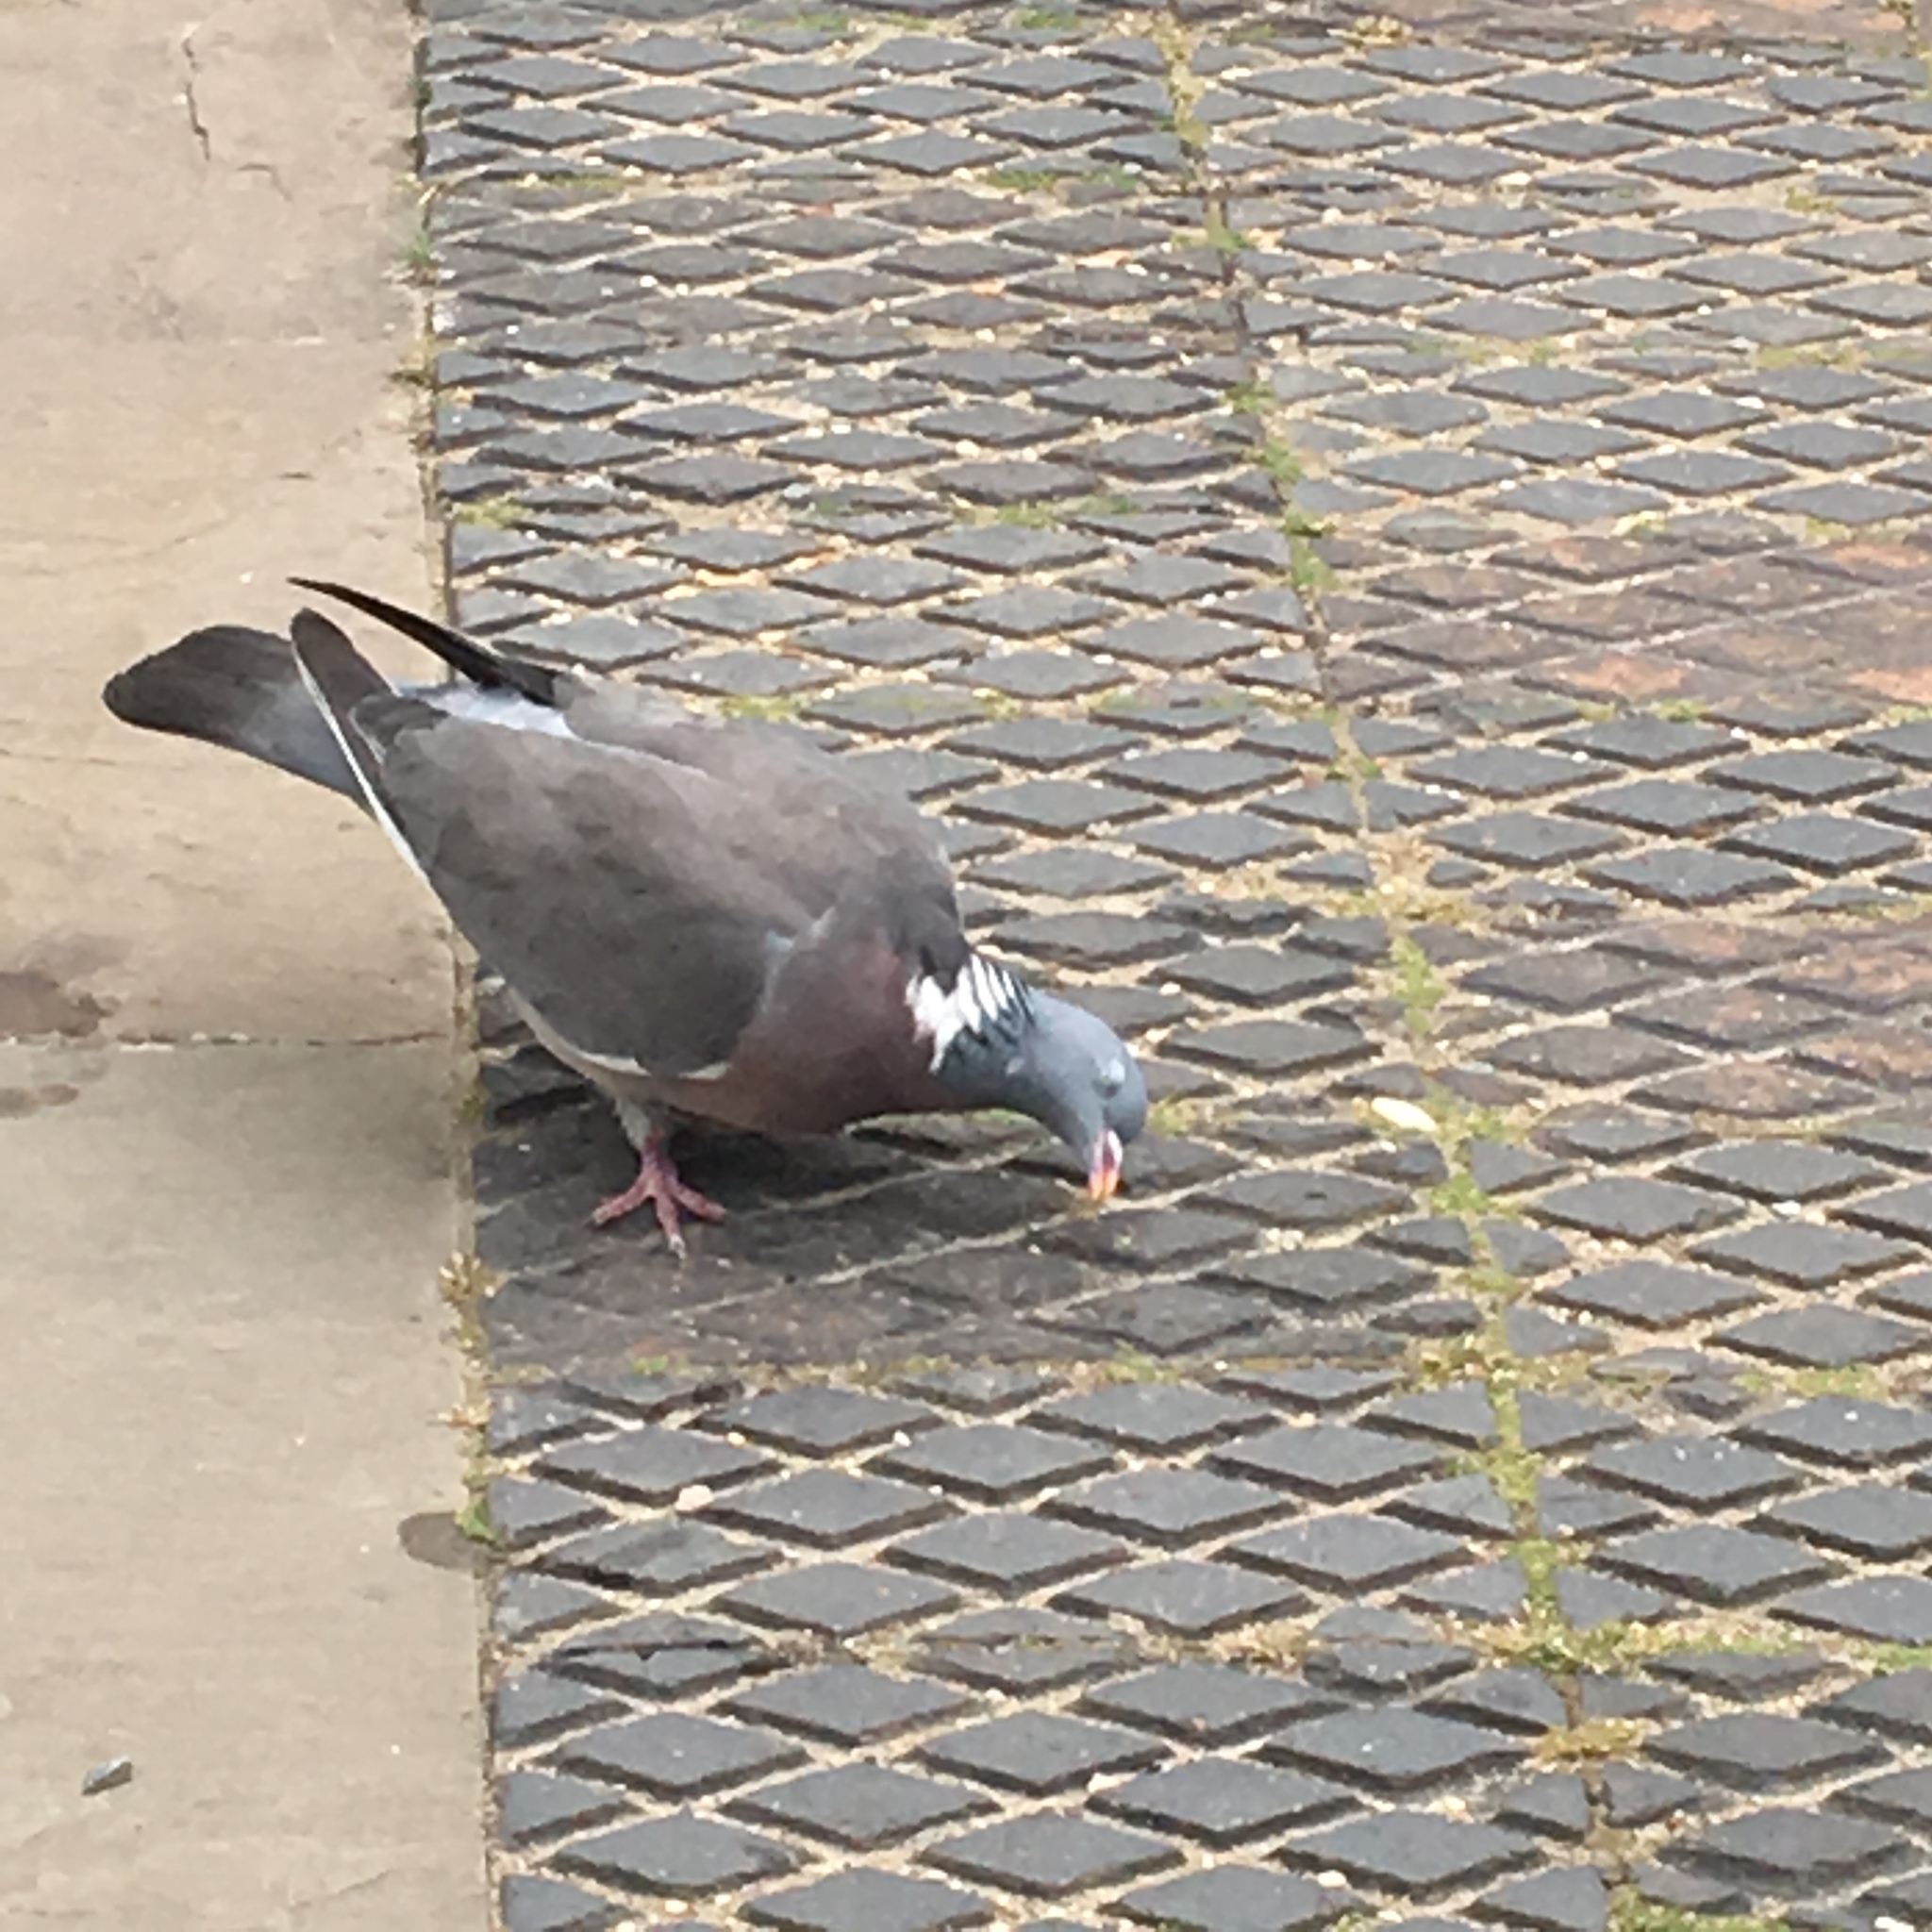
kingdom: Animalia
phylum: Chordata
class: Aves
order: Columbiformes
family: Columbidae
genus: Columba
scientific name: Columba palumbus
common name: Common wood pigeon
